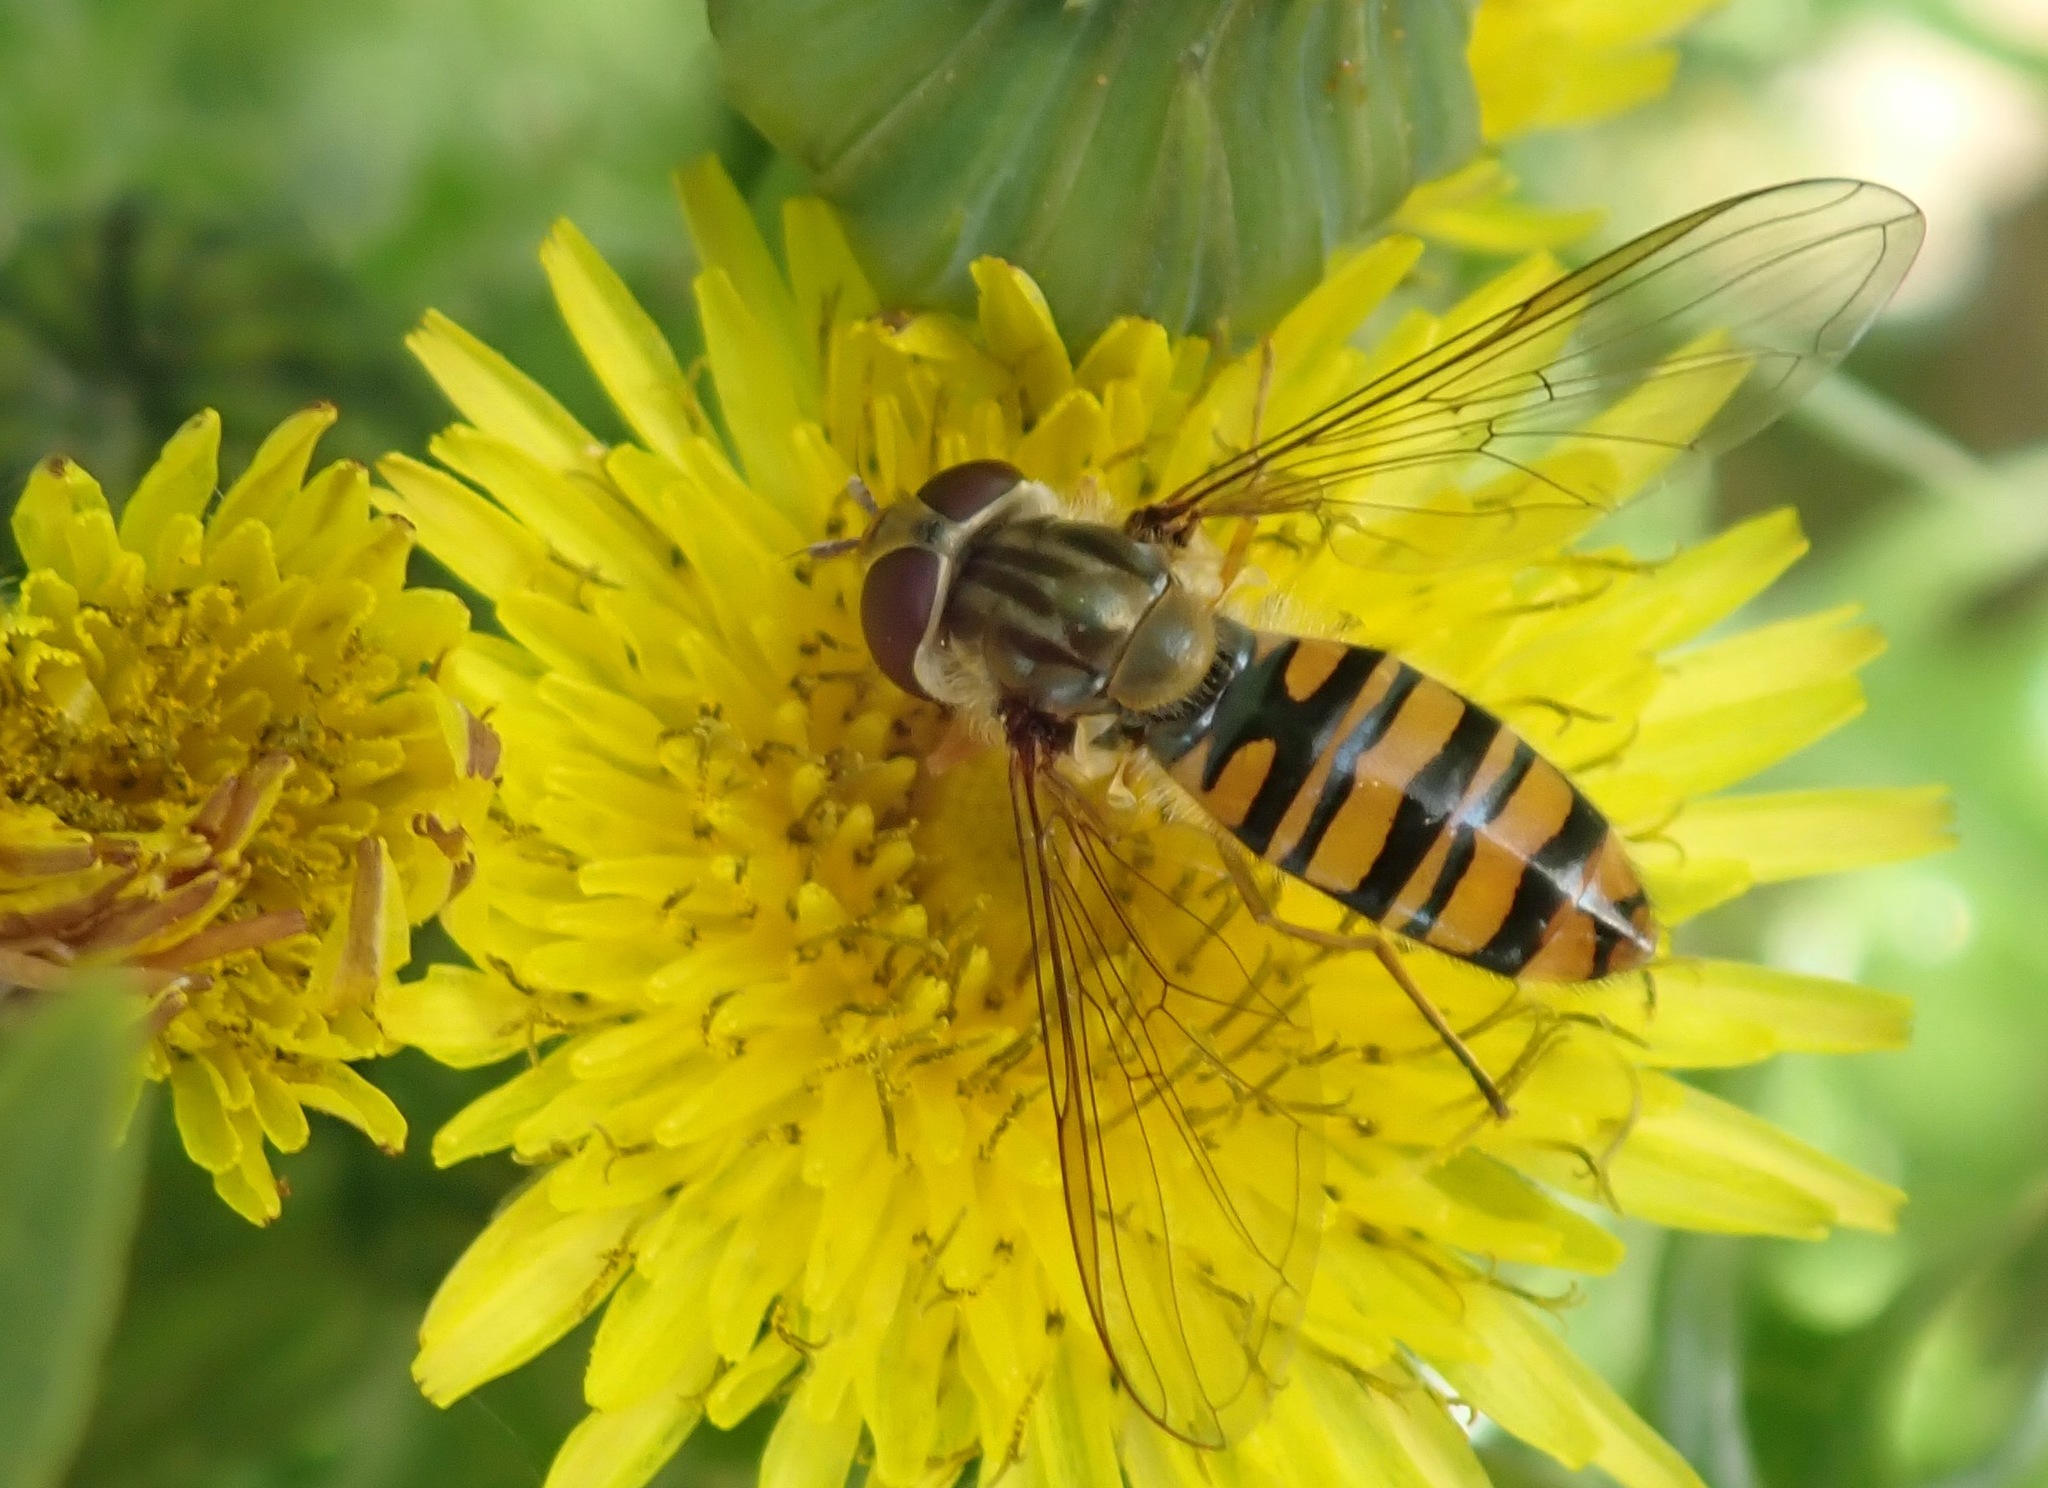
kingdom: Animalia
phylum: Arthropoda
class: Insecta
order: Diptera
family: Syrphidae
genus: Episyrphus
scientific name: Episyrphus balteatus
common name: Marmalade hoverfly
